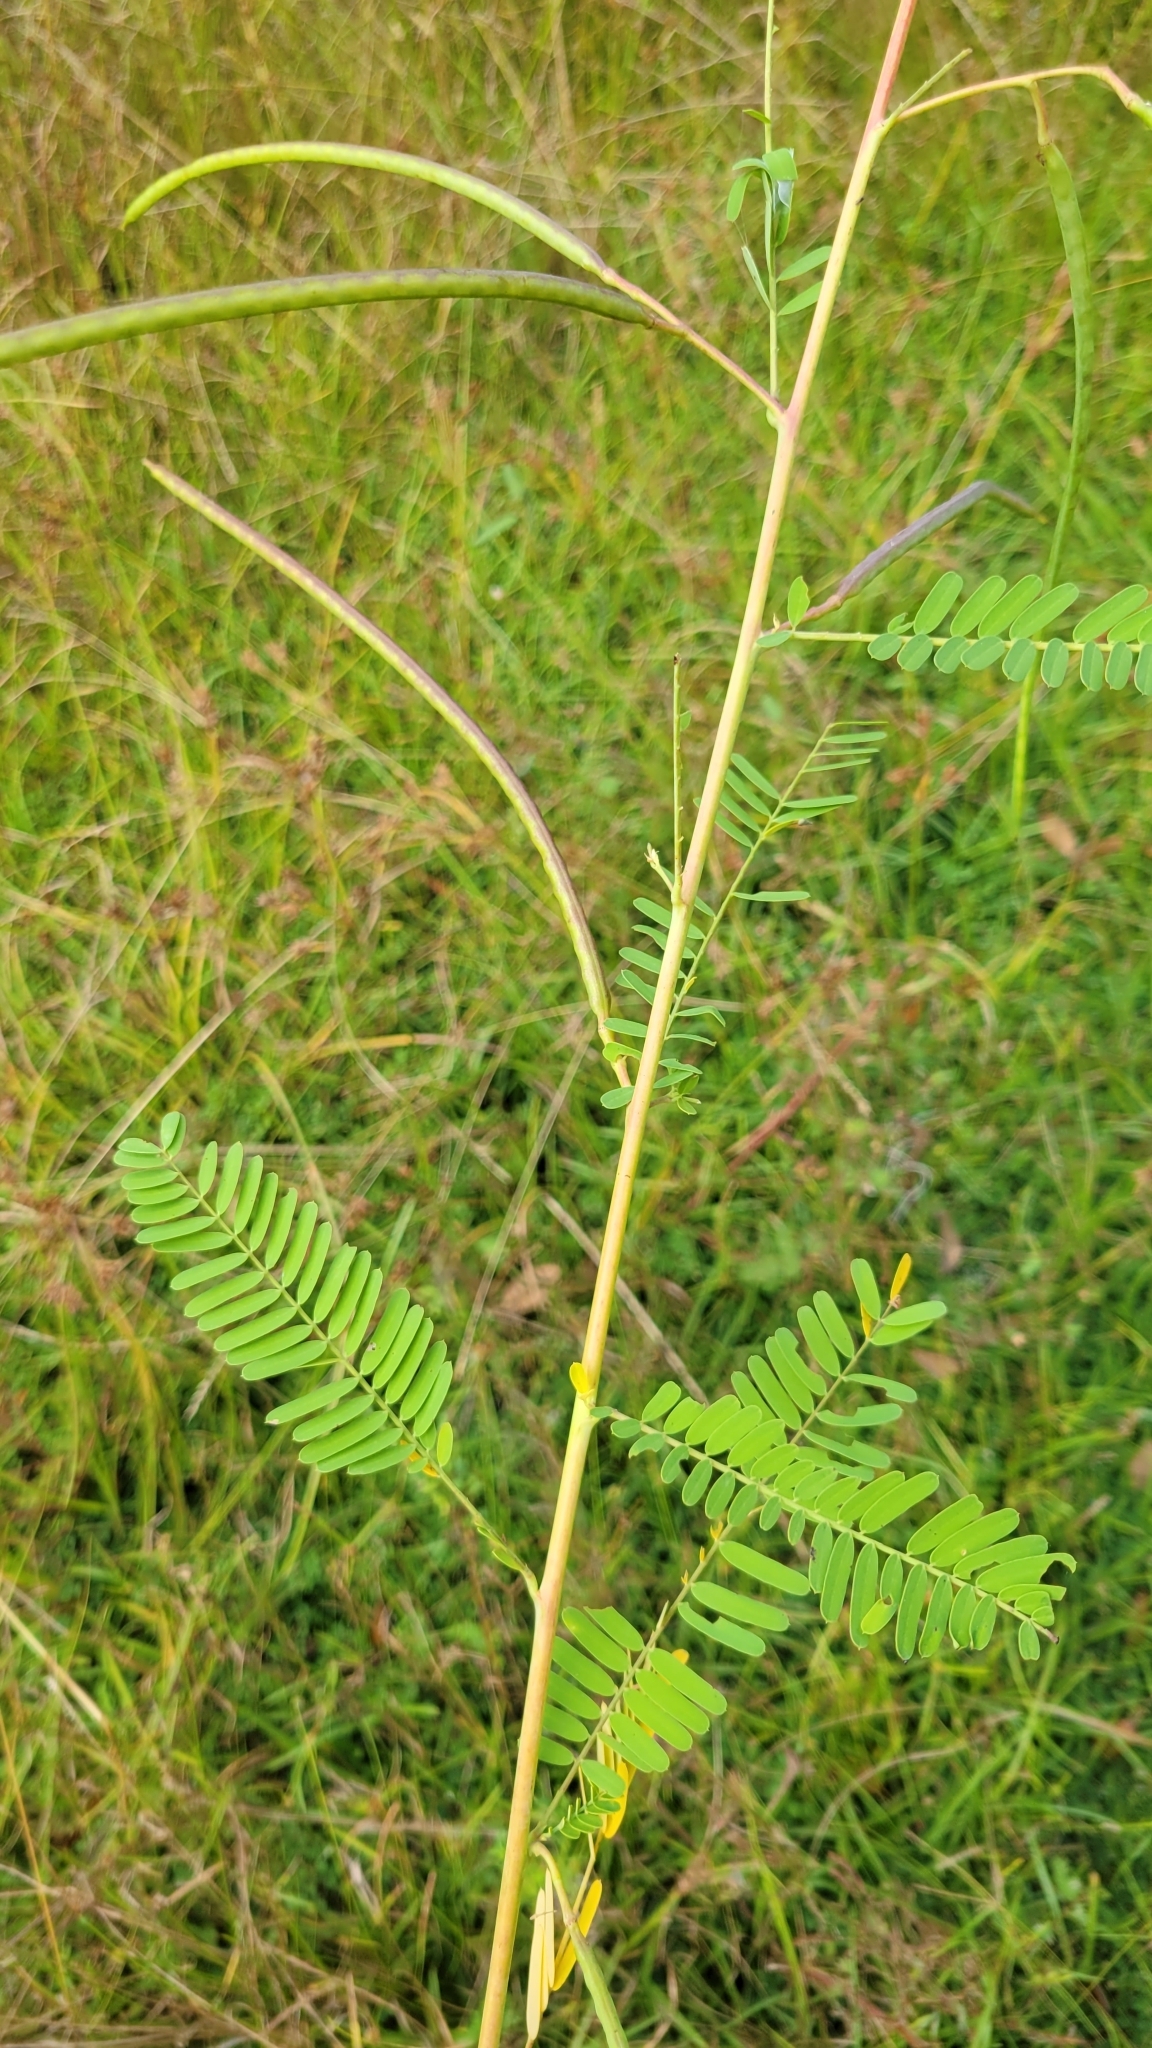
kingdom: Plantae
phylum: Tracheophyta
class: Magnoliopsida
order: Fabales
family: Fabaceae
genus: Sesbania
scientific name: Sesbania herbacea
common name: Bigpod sesbania
